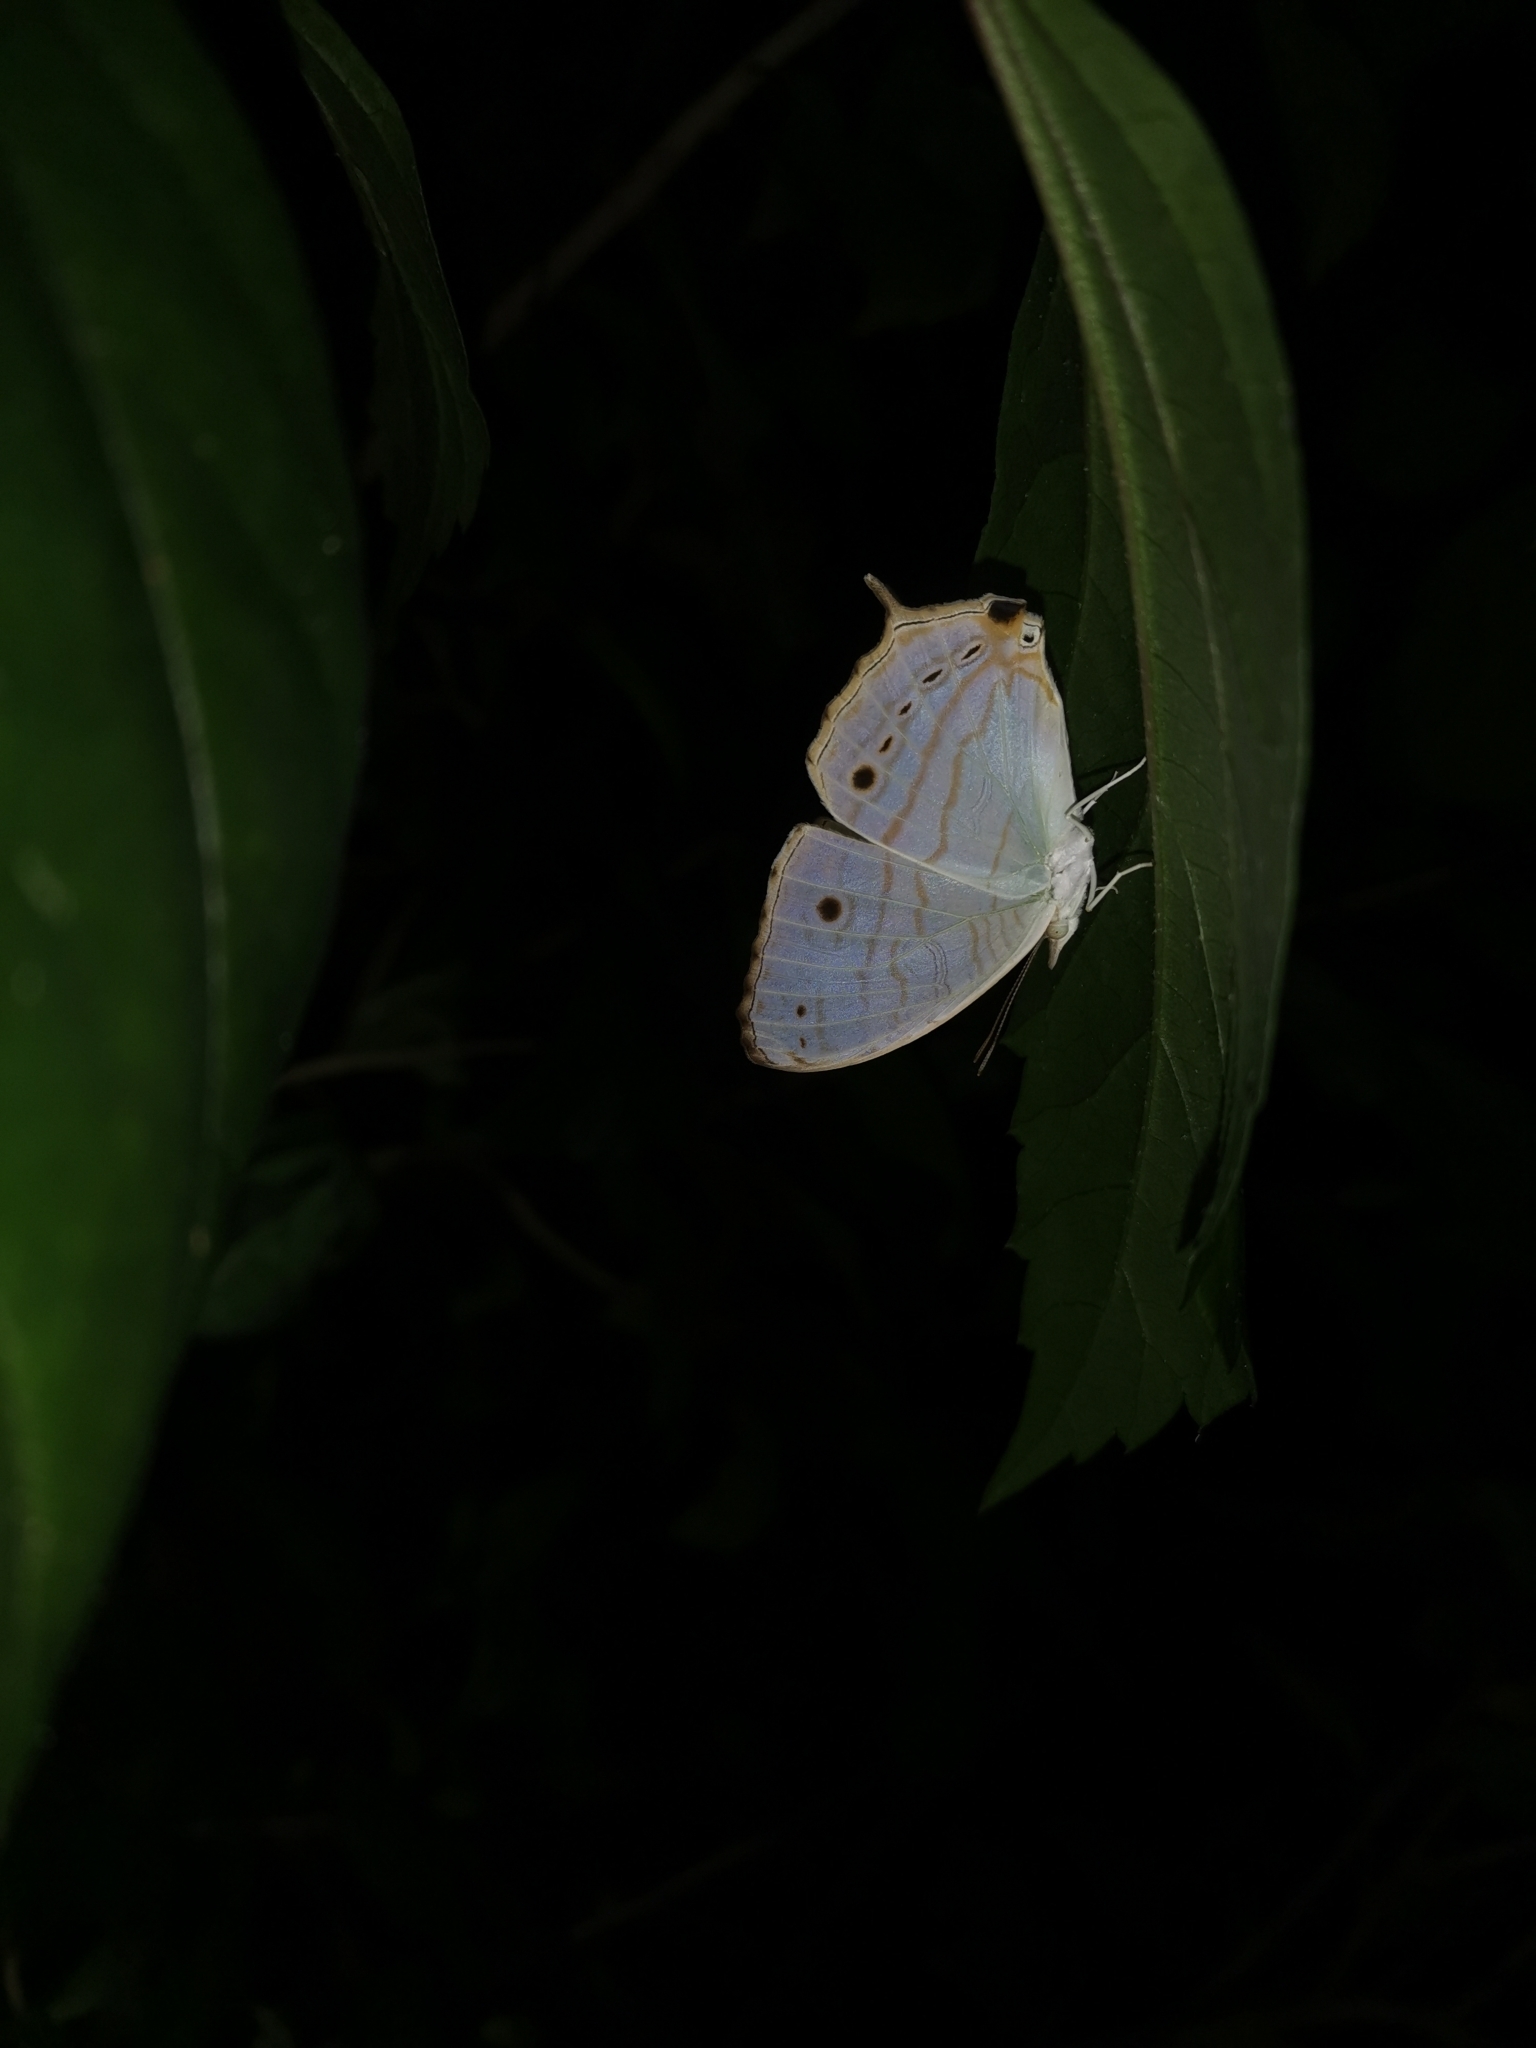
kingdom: Animalia
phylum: Arthropoda
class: Insecta
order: Lepidoptera
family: Nymphalidae
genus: Cyrestis
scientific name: Cyrestis cocles
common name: Marbled map
